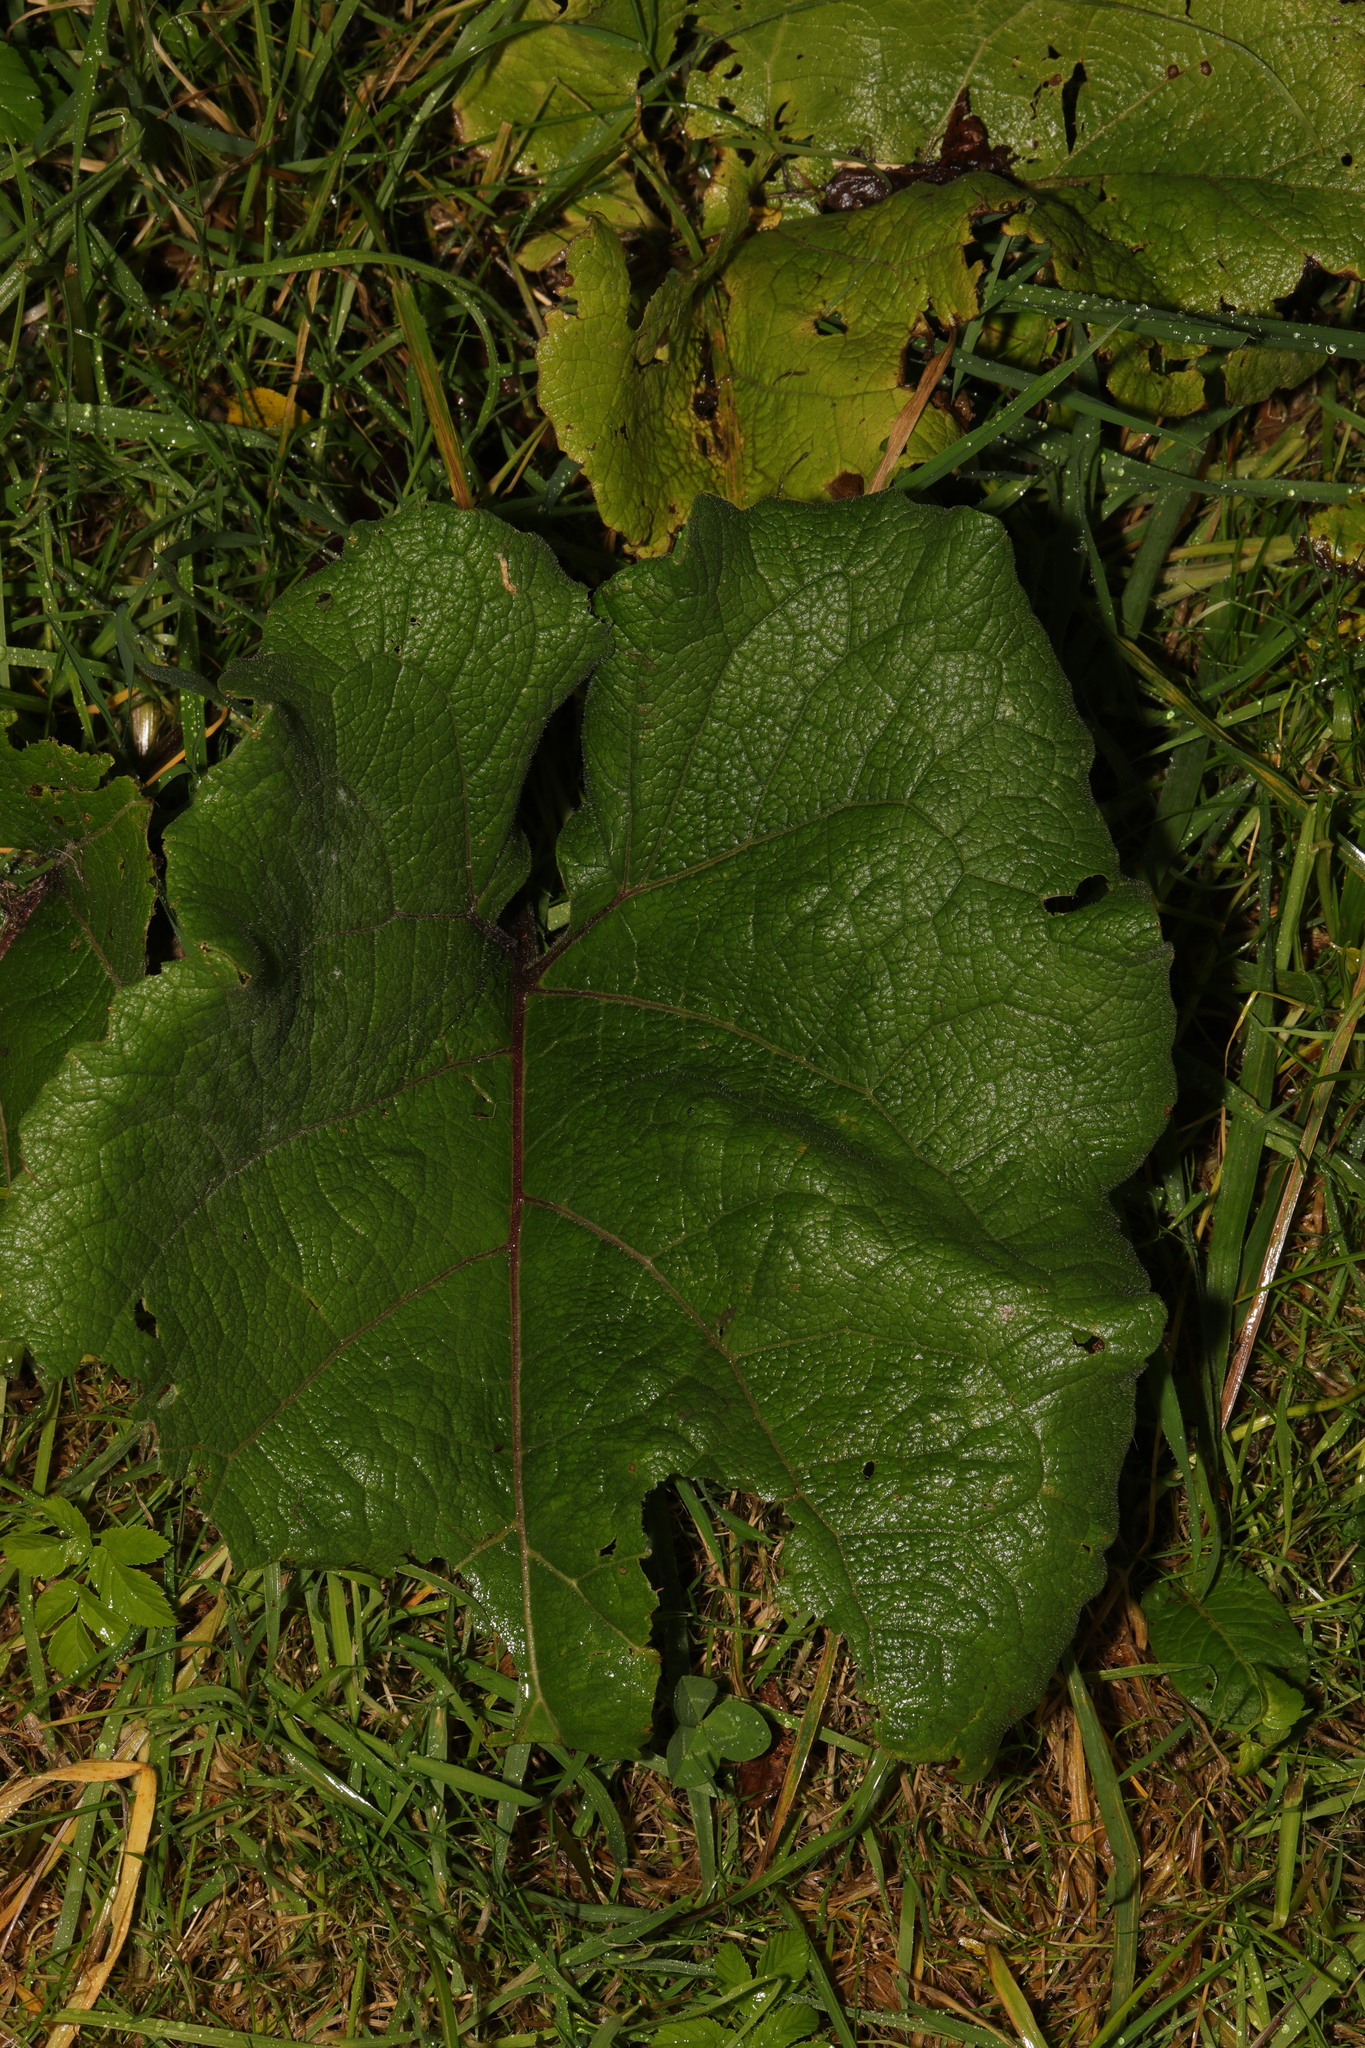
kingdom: Plantae
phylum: Tracheophyta
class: Magnoliopsida
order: Asterales
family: Asteraceae
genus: Arctium
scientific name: Arctium minus
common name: Lesser burdock
